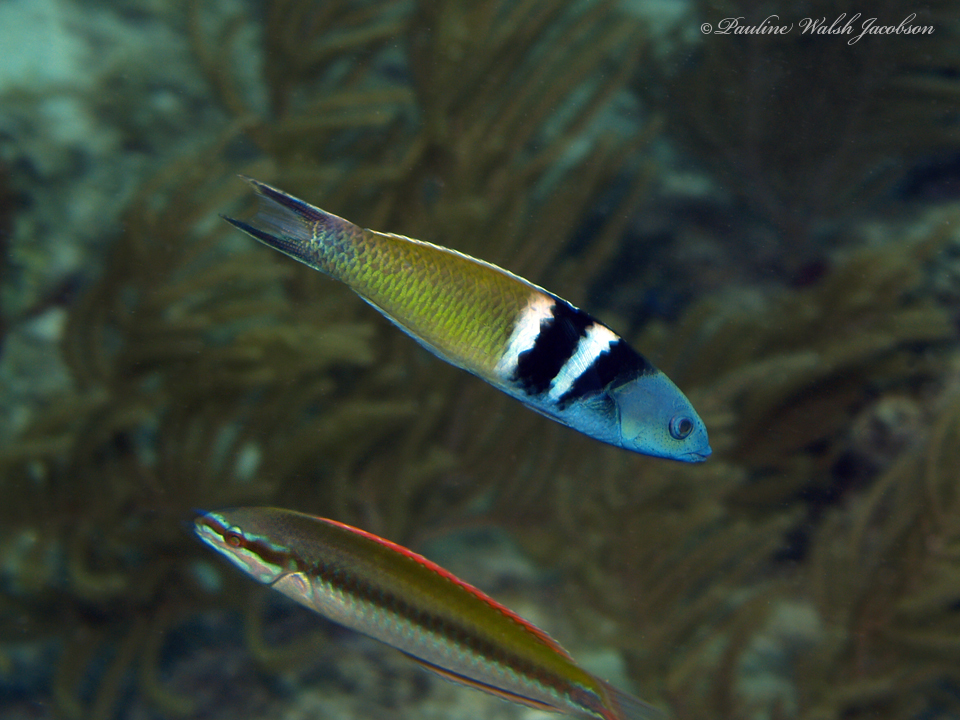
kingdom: Animalia
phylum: Chordata
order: Perciformes
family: Labridae
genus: Halichoeres
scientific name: Halichoeres pictus
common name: Rainbow wrasse
